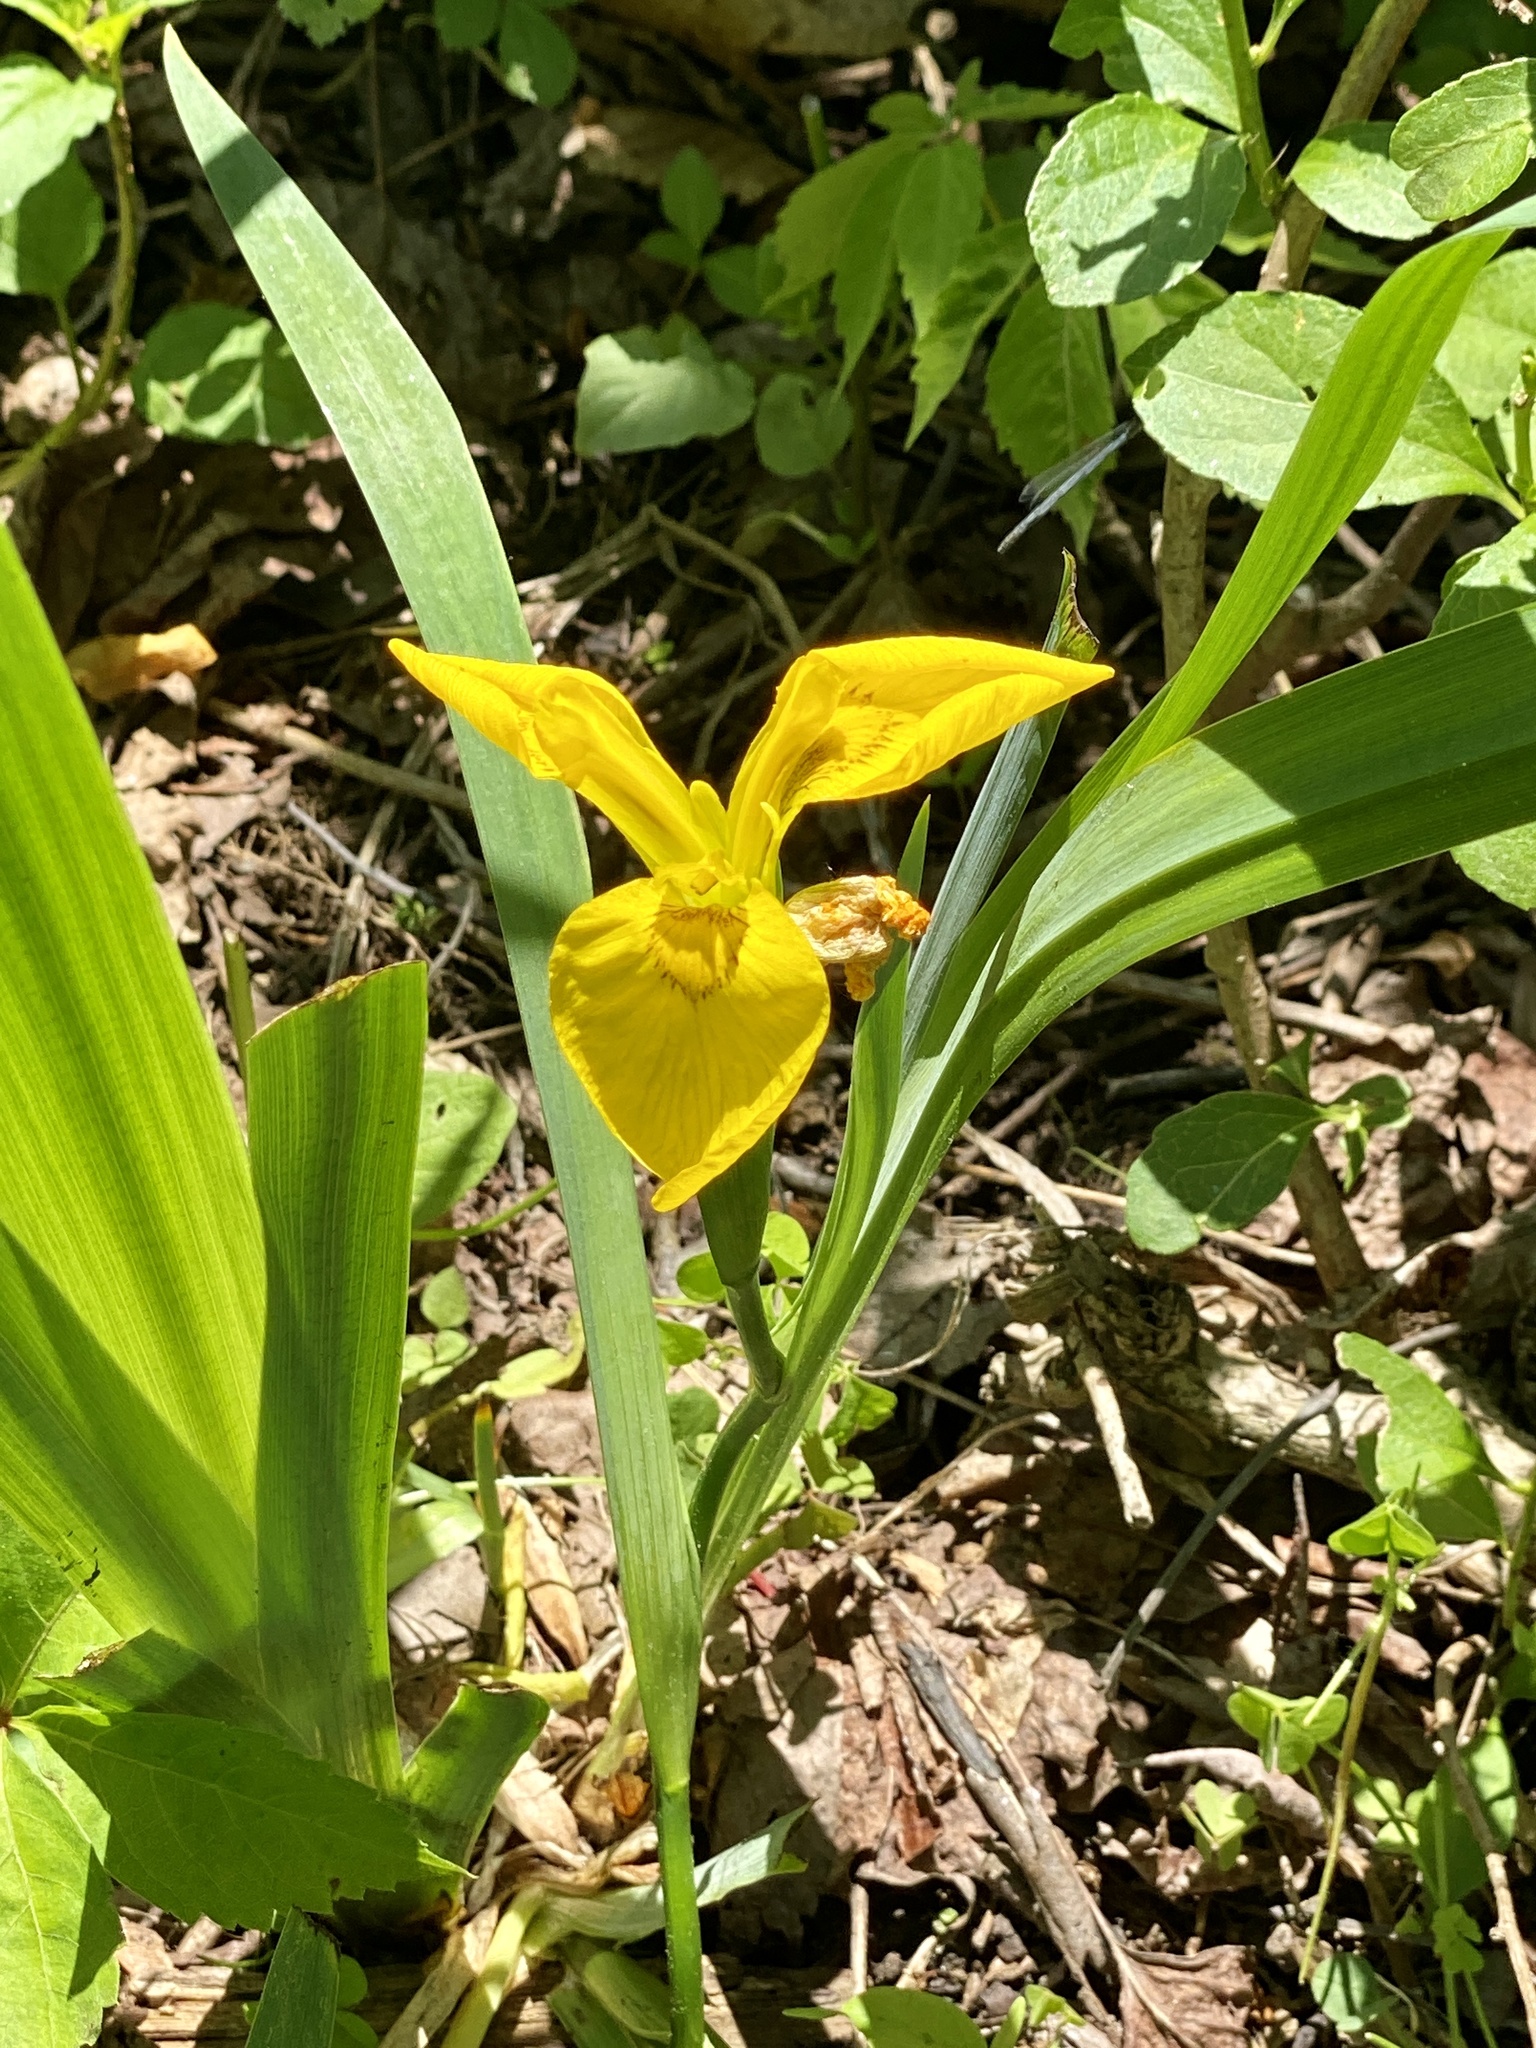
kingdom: Plantae
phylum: Tracheophyta
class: Liliopsida
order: Asparagales
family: Iridaceae
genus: Iris
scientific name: Iris pseudacorus
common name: Yellow flag
